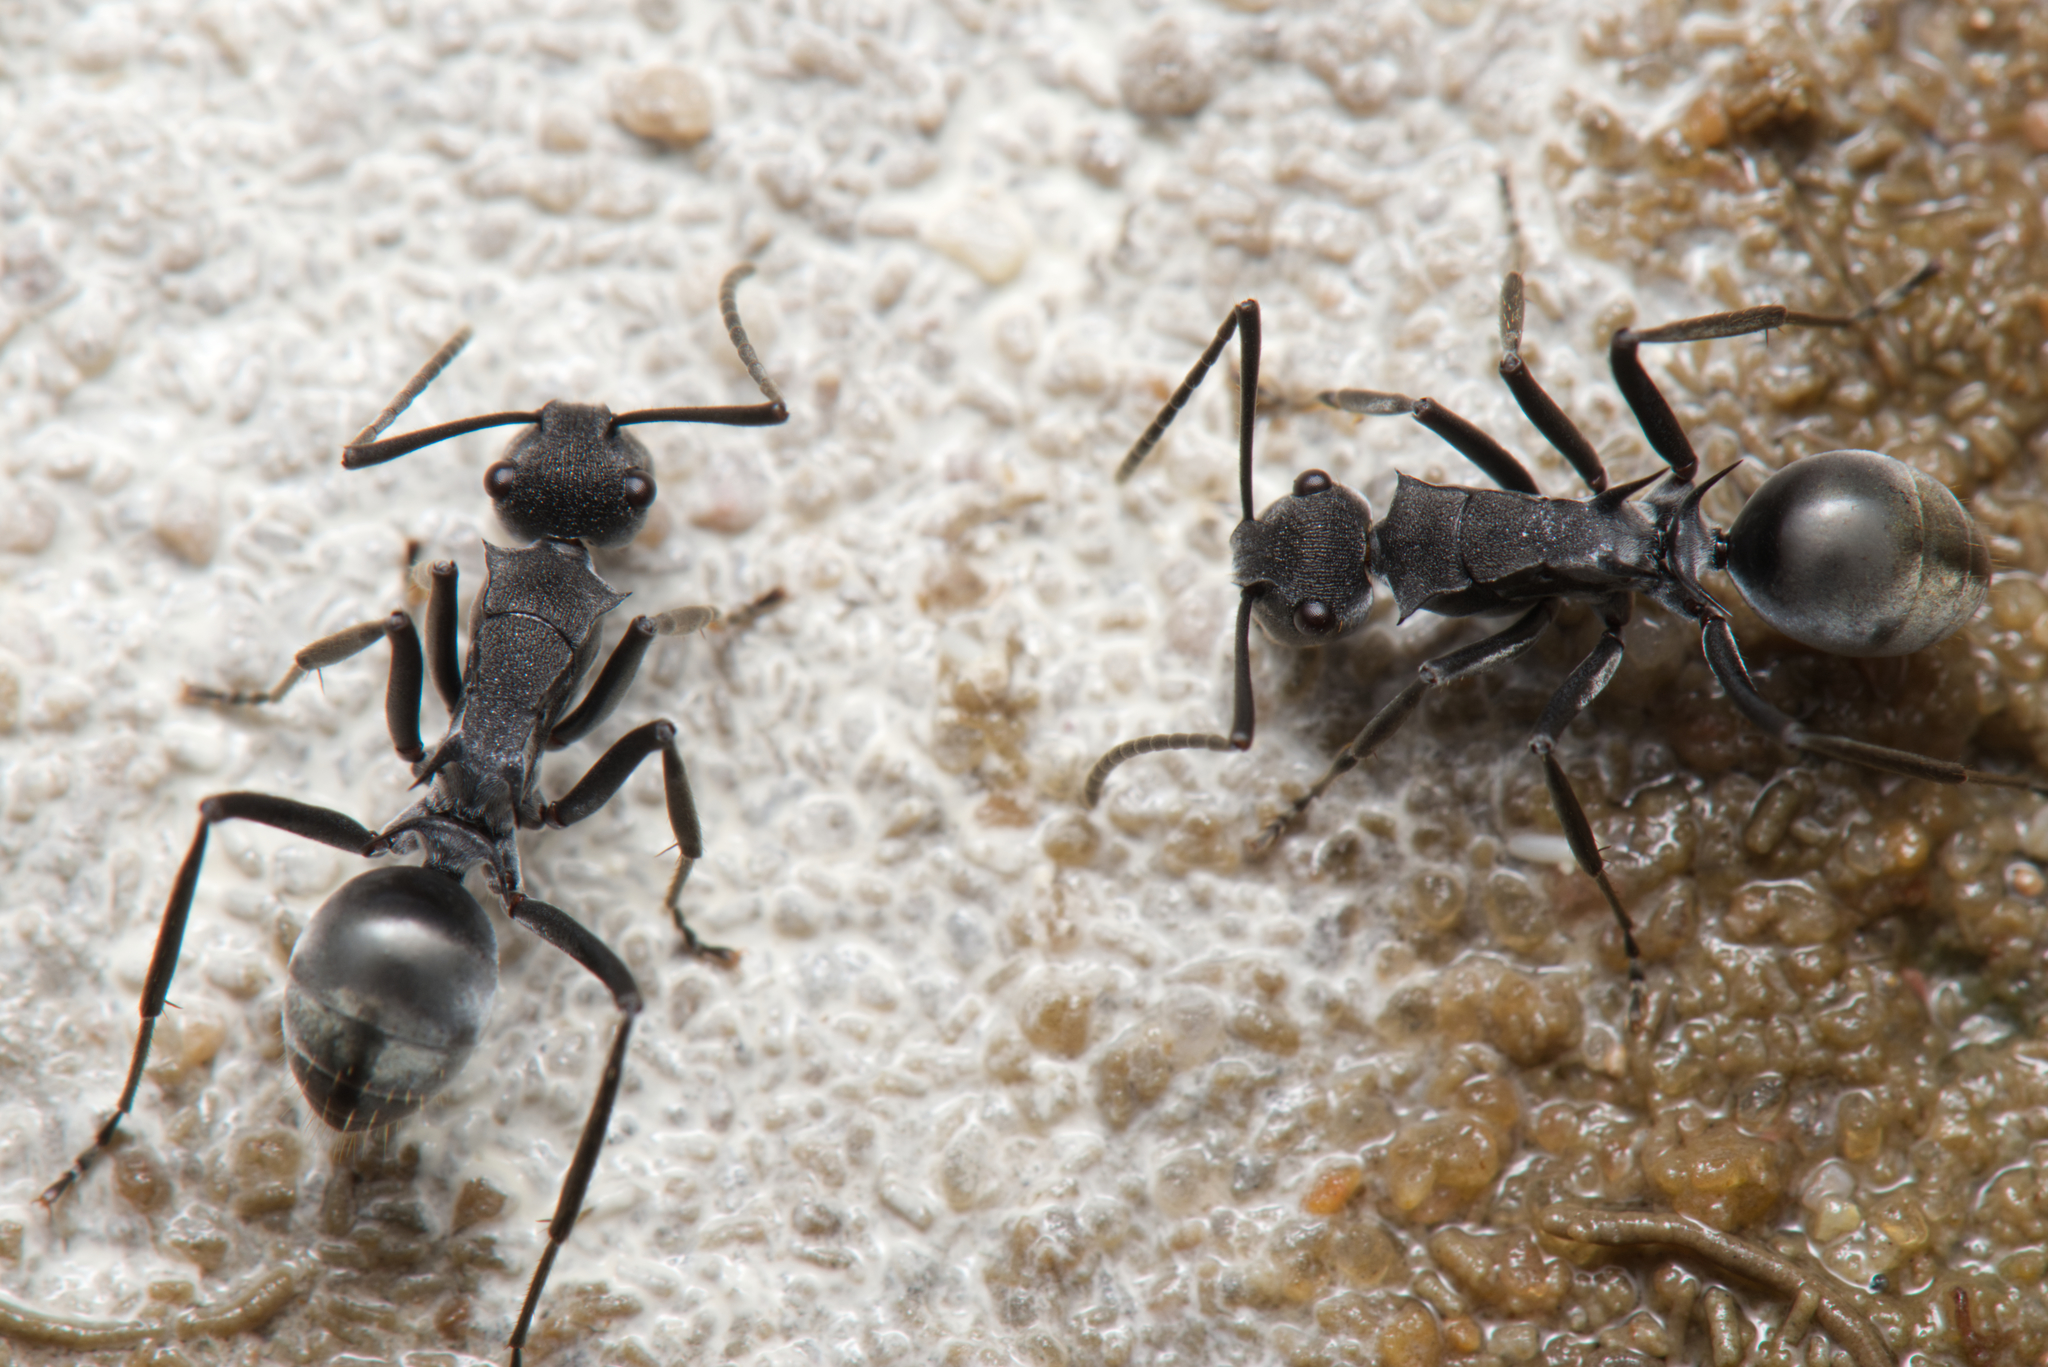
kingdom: Animalia
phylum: Arthropoda
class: Insecta
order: Hymenoptera
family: Formicidae
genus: Polyrhachis
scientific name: Polyrhachis sokolova
